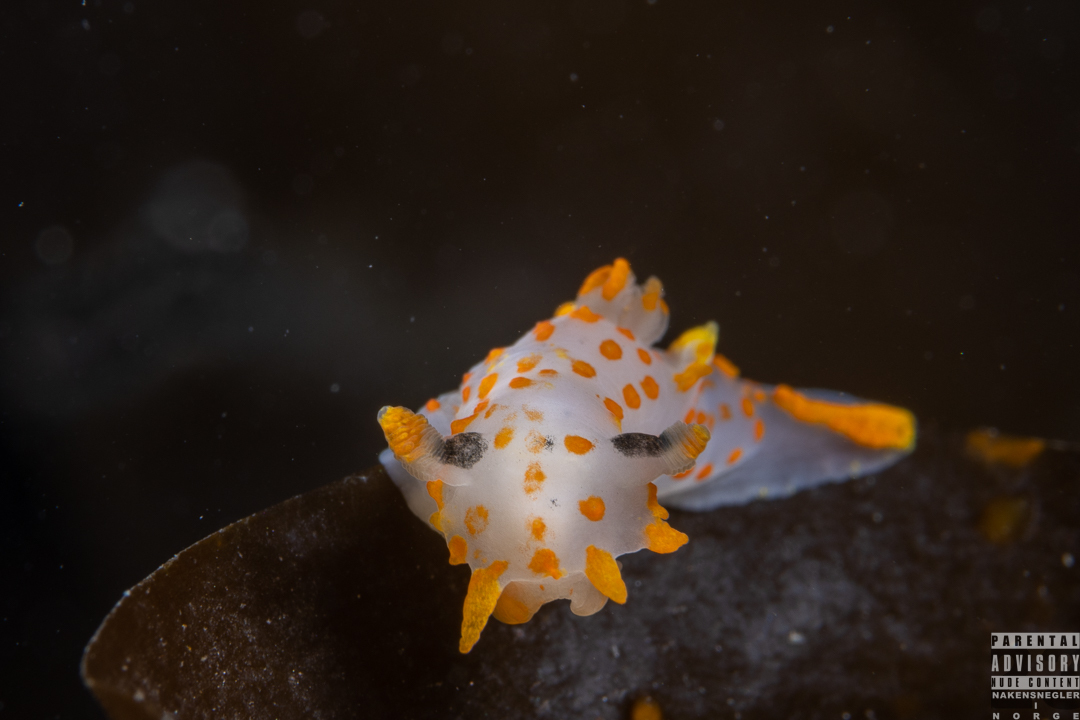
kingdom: Animalia
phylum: Mollusca
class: Gastropoda
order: Nudibranchia
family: Polyceridae
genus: Polycera
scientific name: Polycera quadrilineata
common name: Four-striped polycera
